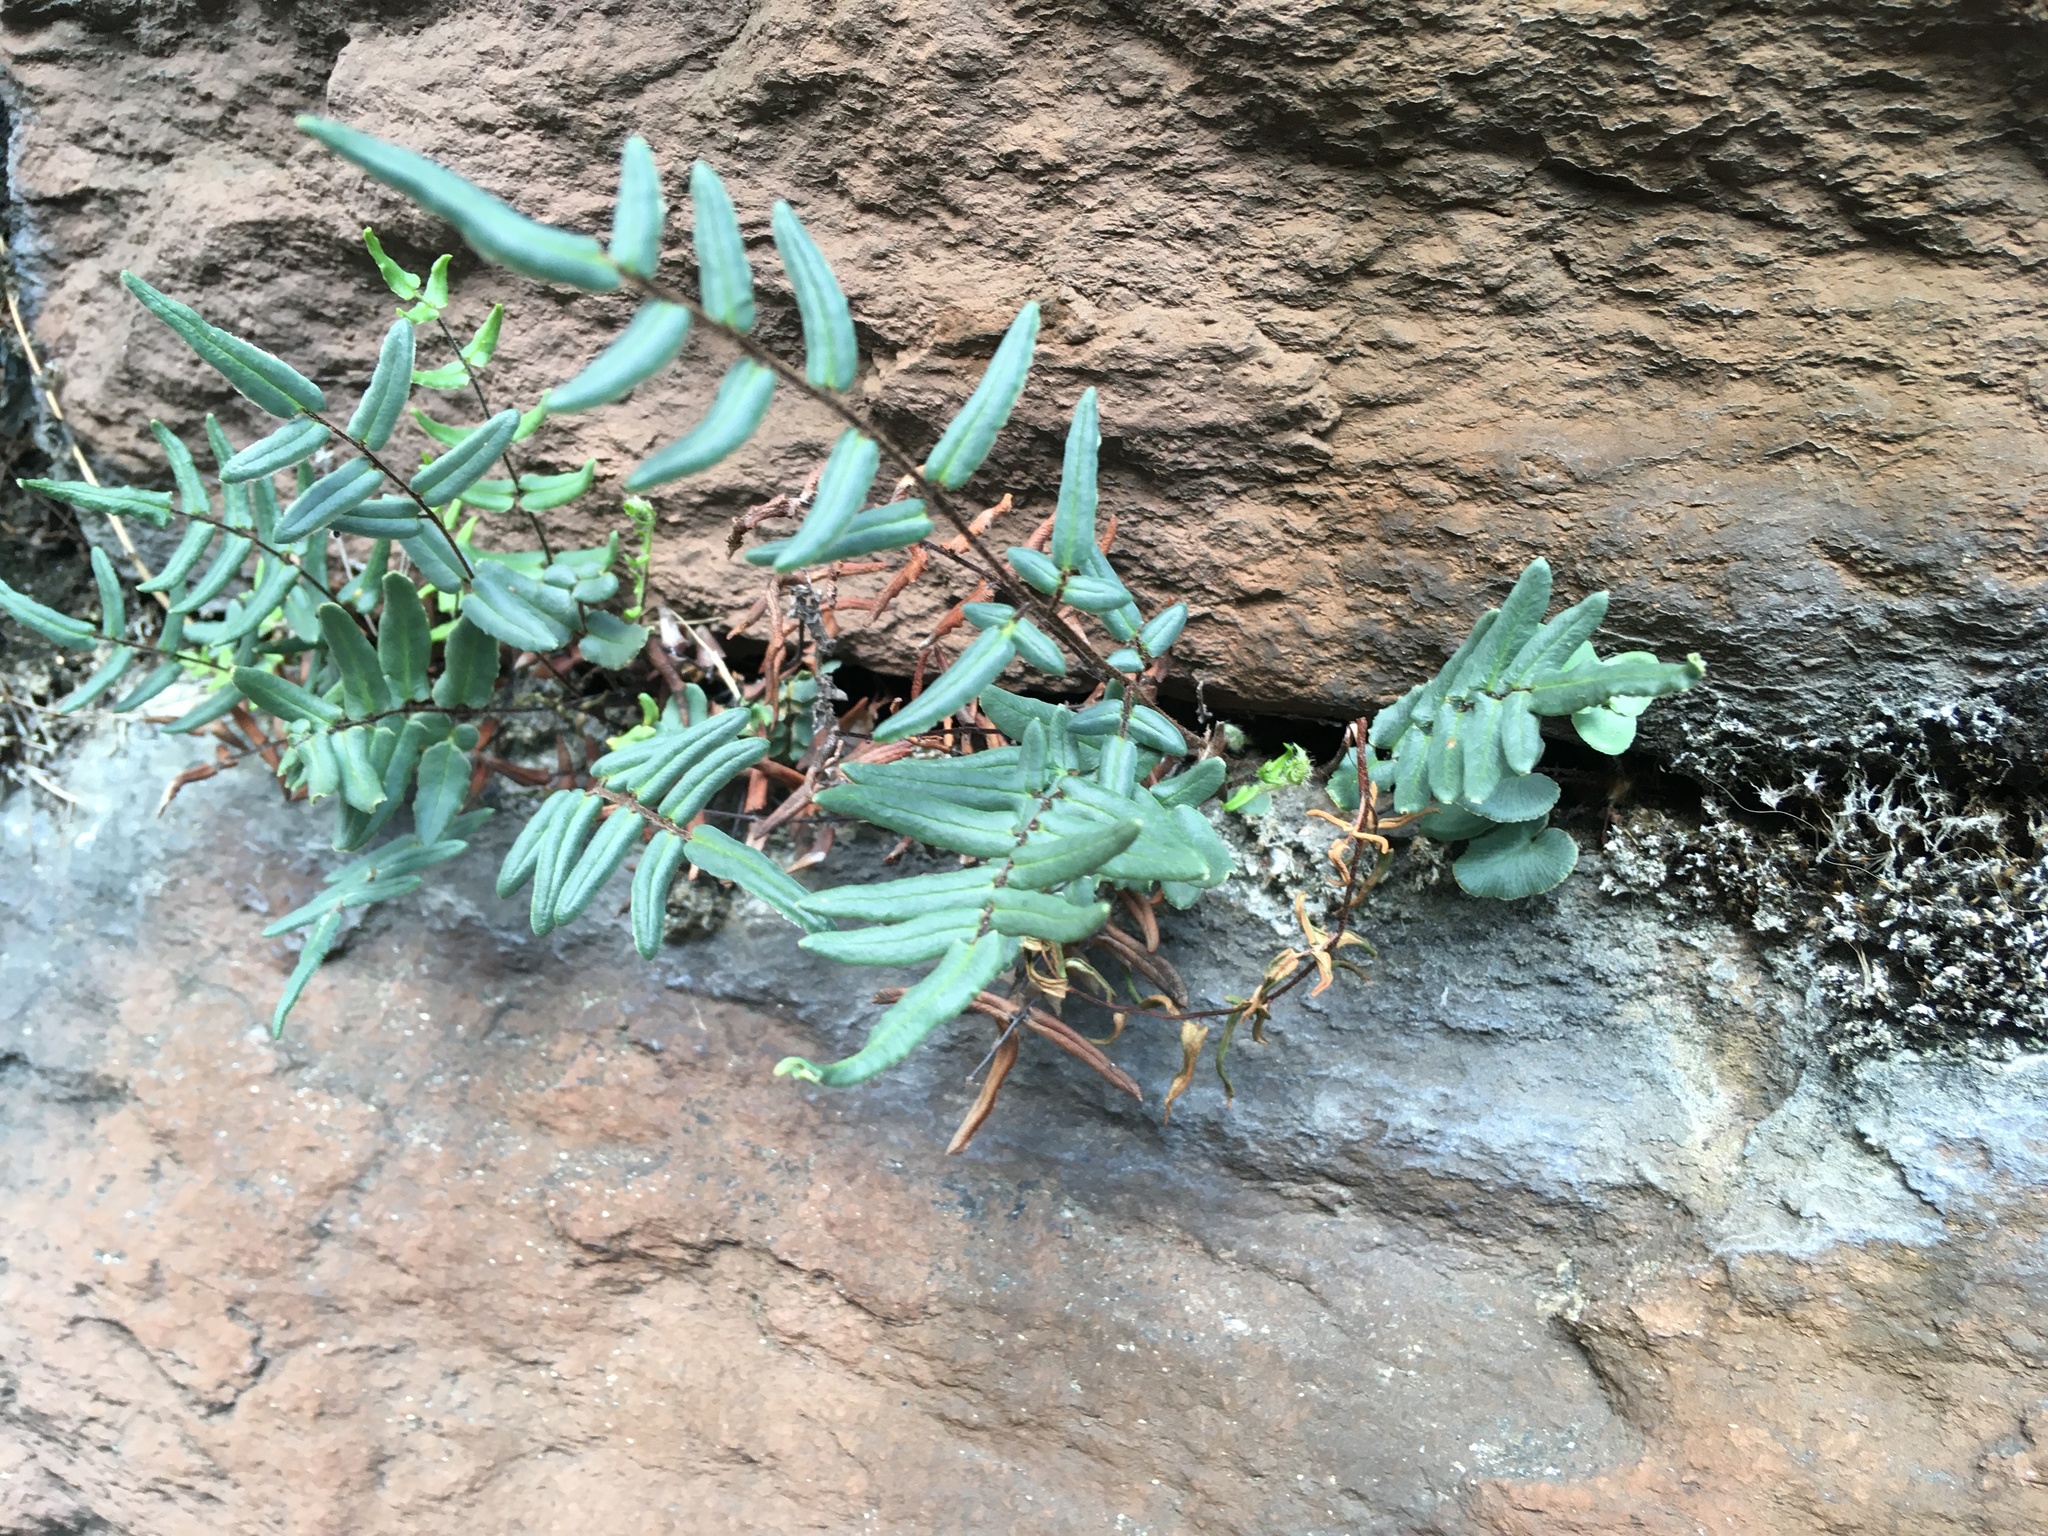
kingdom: Plantae
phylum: Tracheophyta
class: Polypodiopsida
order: Polypodiales
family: Pteridaceae
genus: Pellaea
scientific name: Pellaea atropurpurea
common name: Hairy cliffbrake
